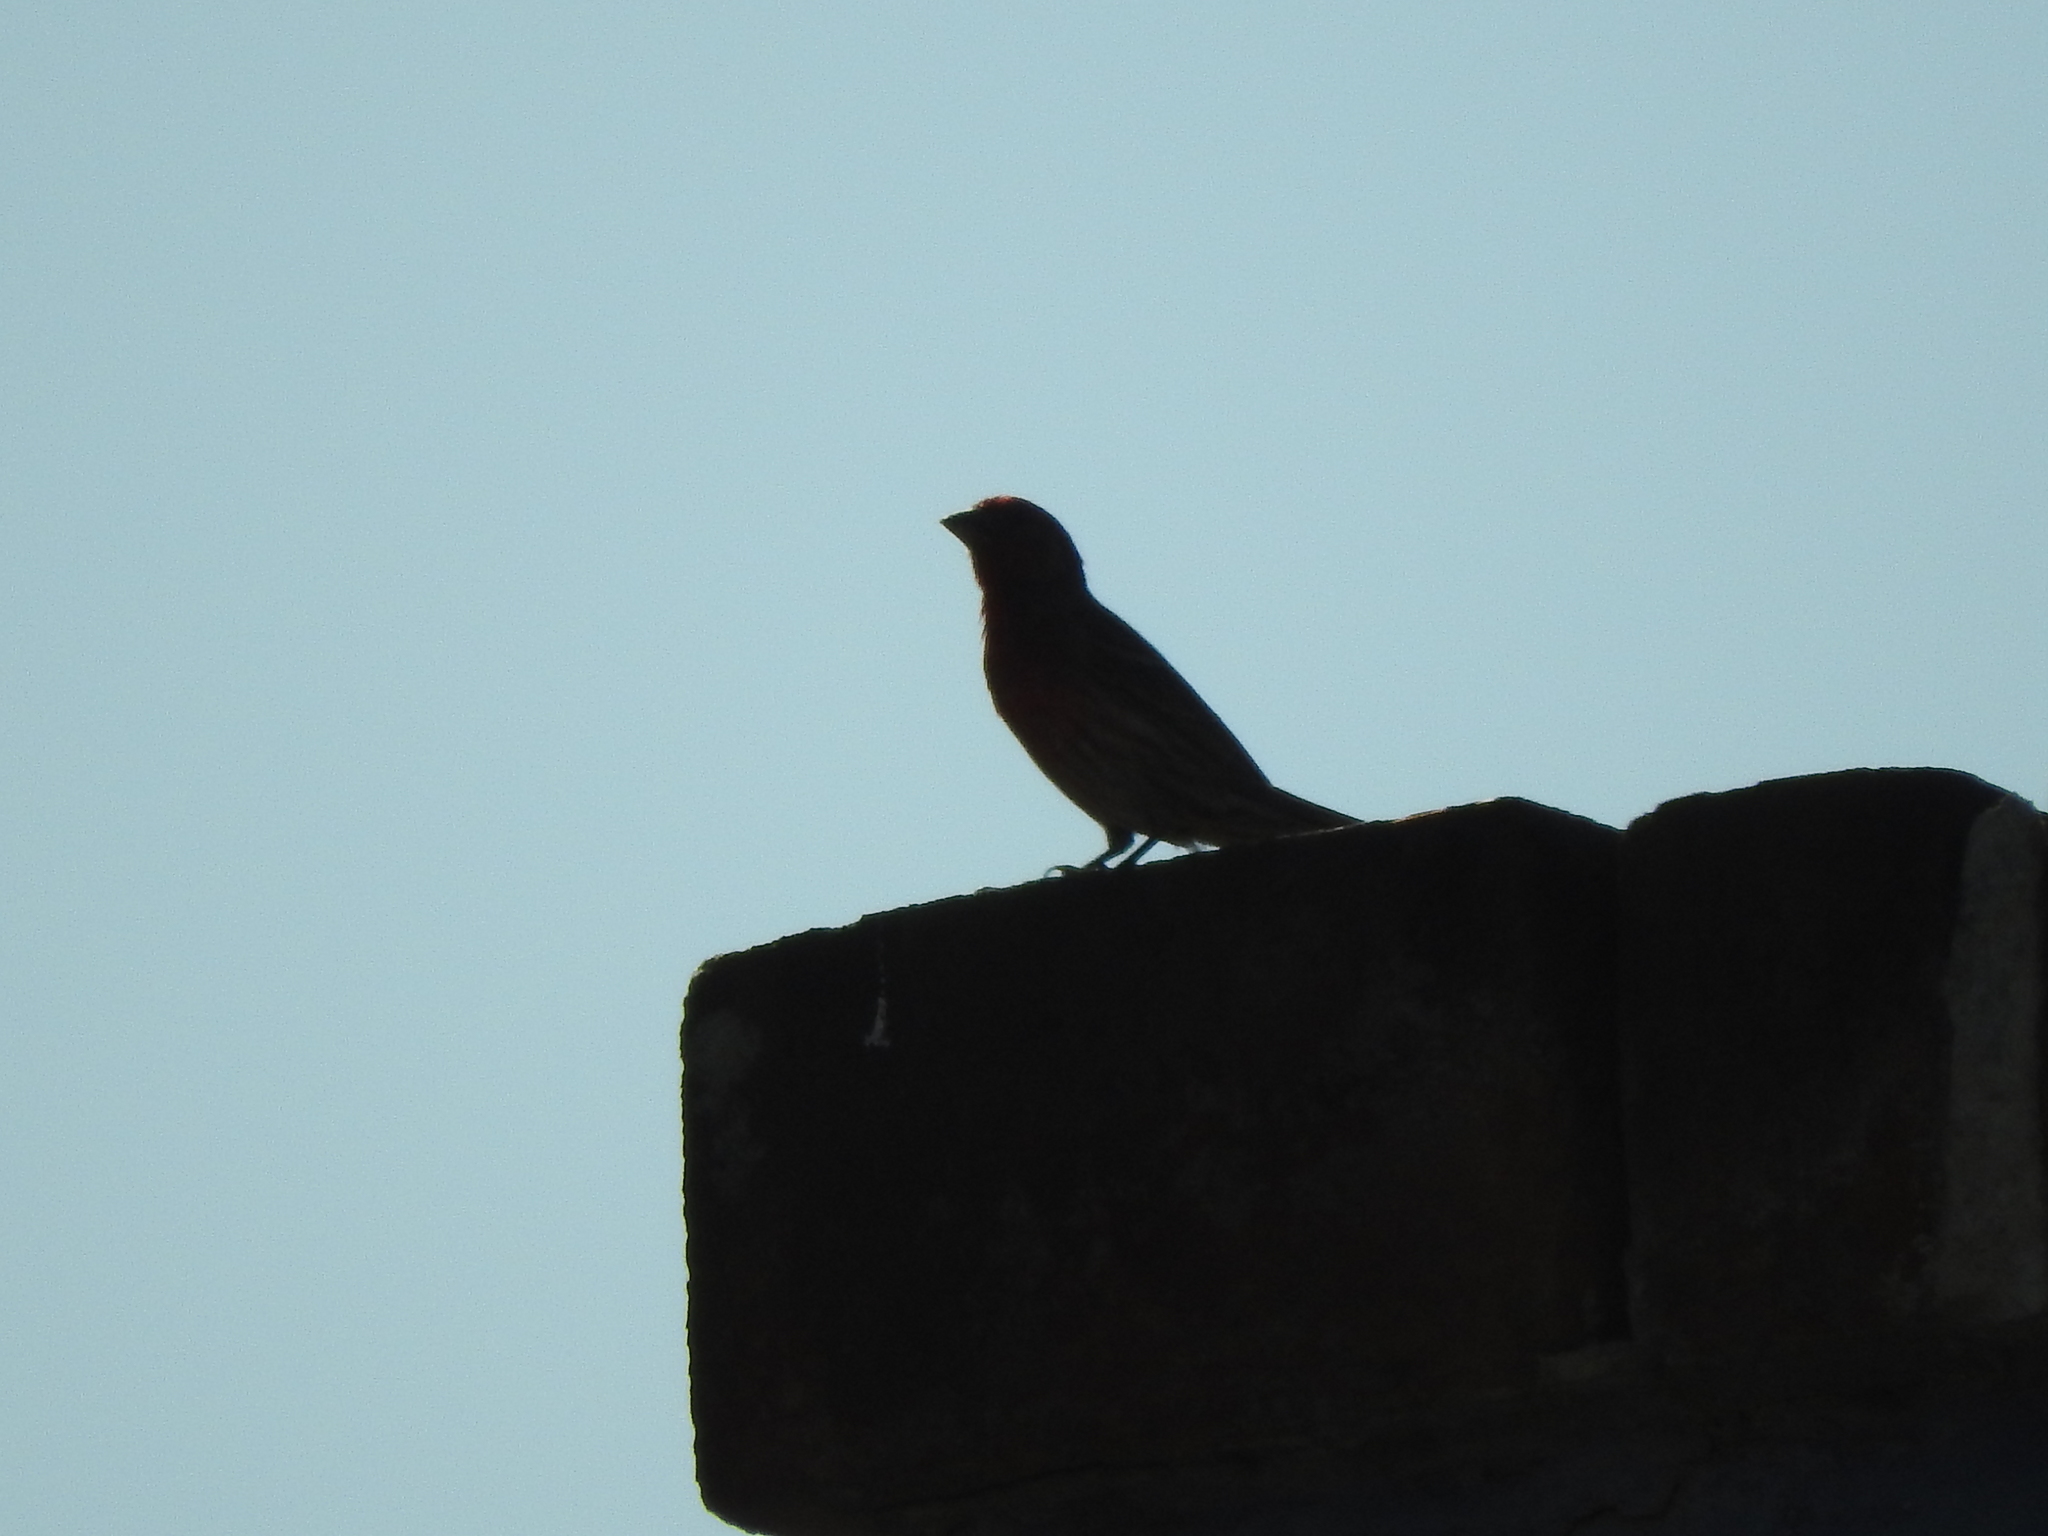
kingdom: Animalia
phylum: Chordata
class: Aves
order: Passeriformes
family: Fringillidae
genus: Haemorhous
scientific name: Haemorhous mexicanus
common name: House finch
